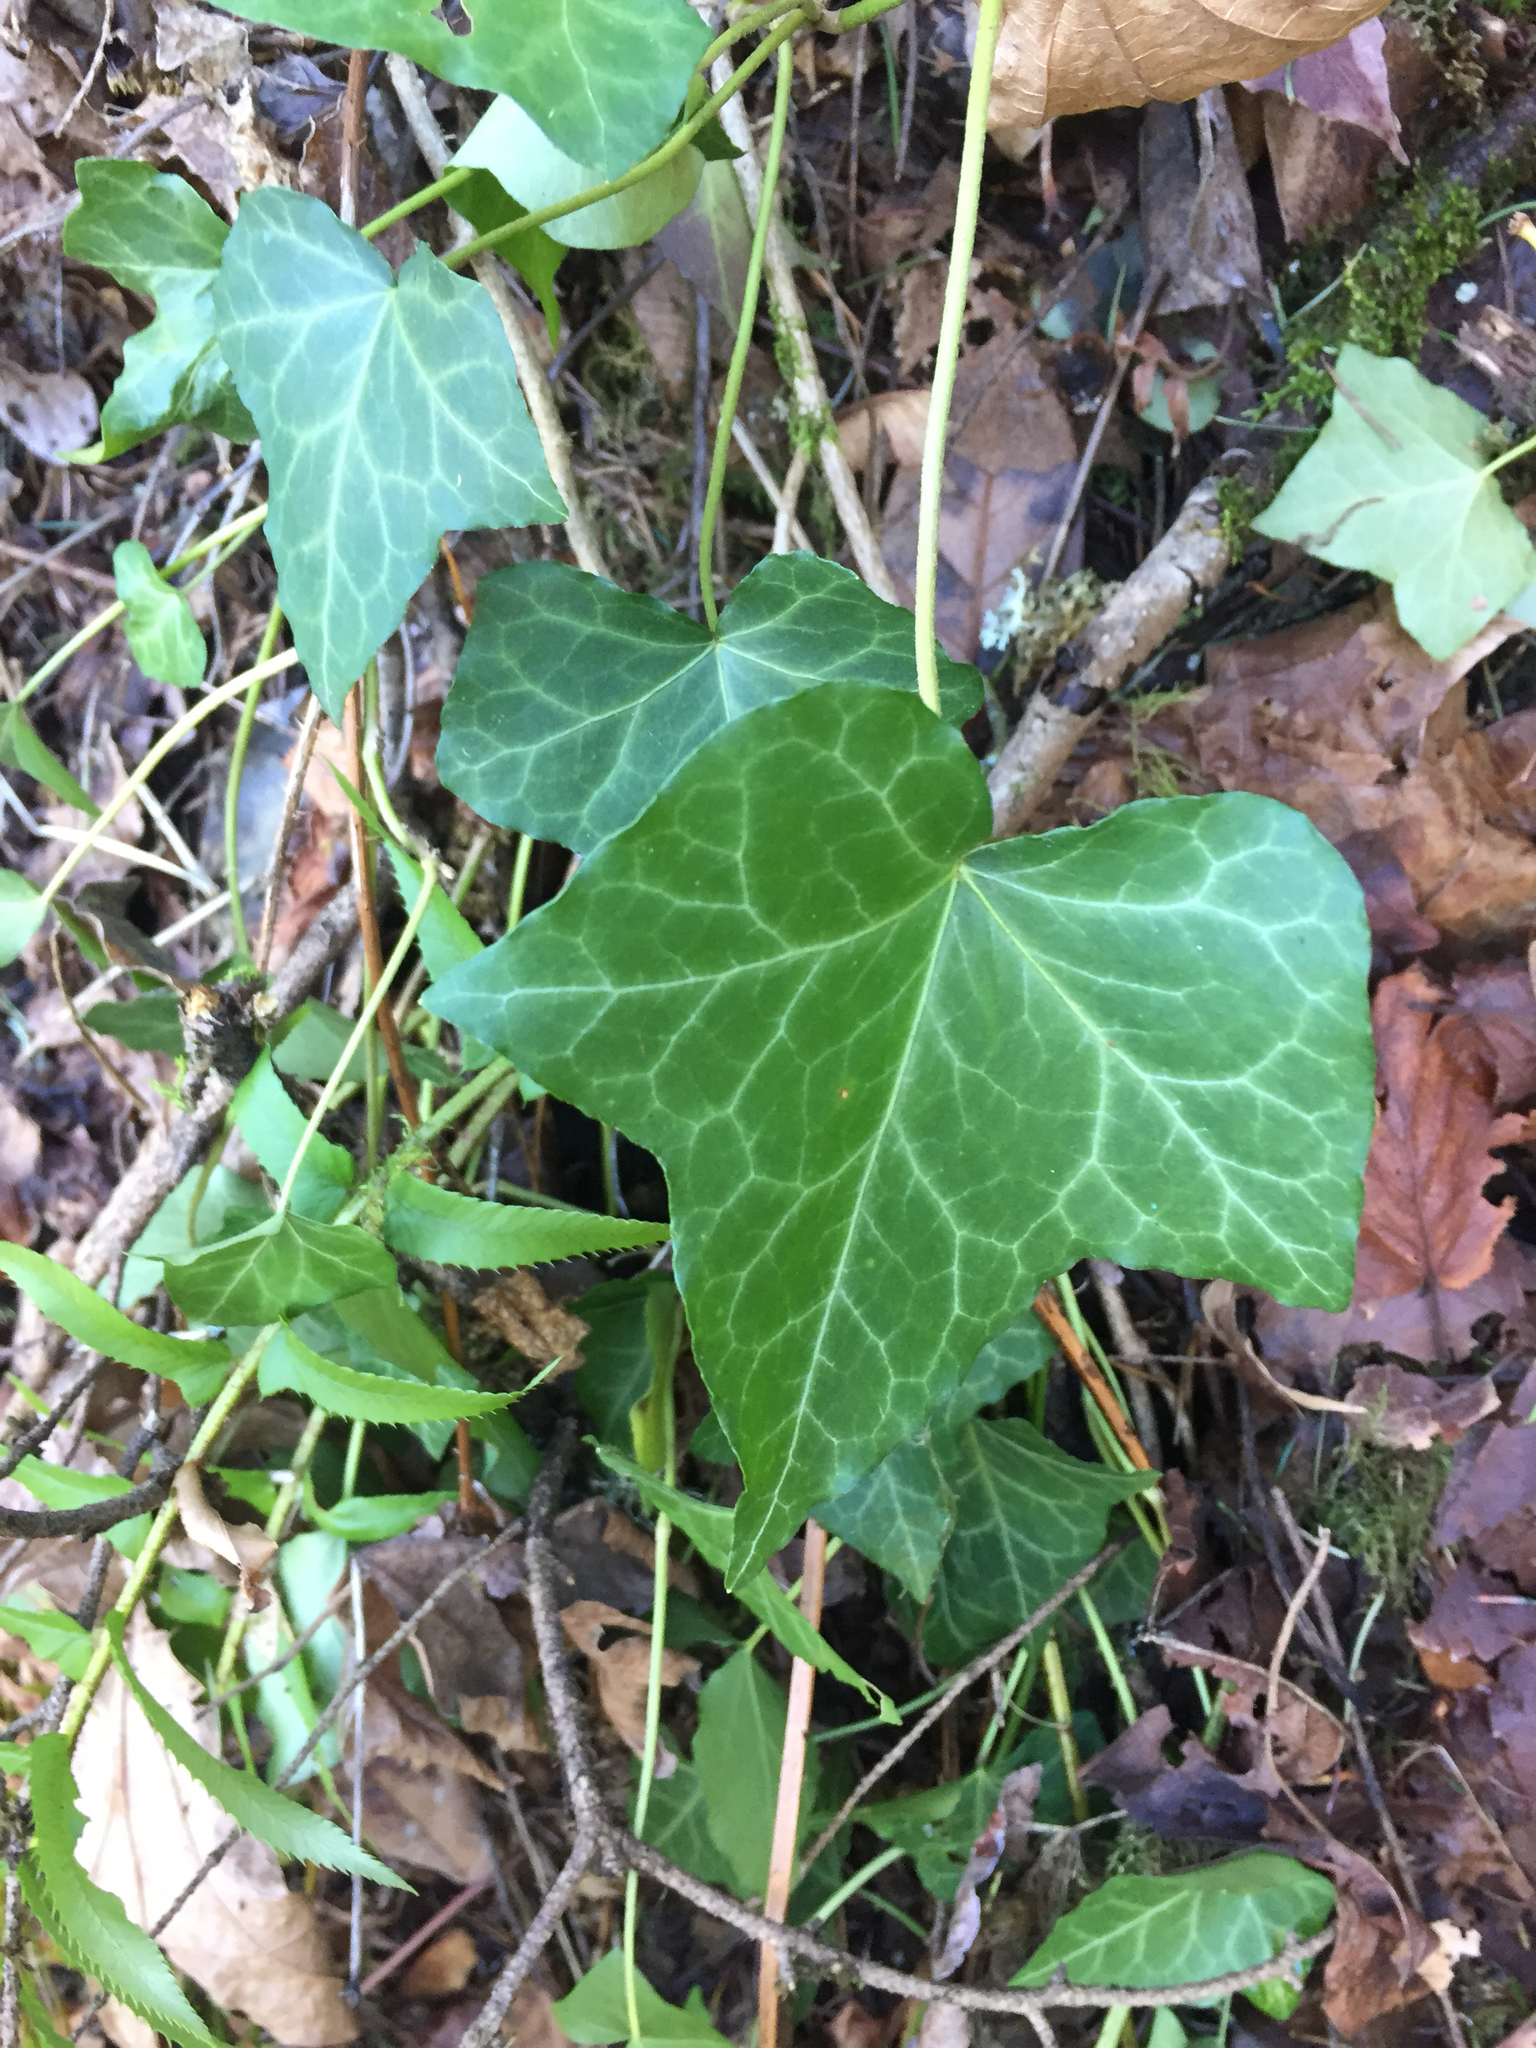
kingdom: Plantae
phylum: Tracheophyta
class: Magnoliopsida
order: Apiales
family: Araliaceae
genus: Hedera
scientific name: Hedera hibernica
